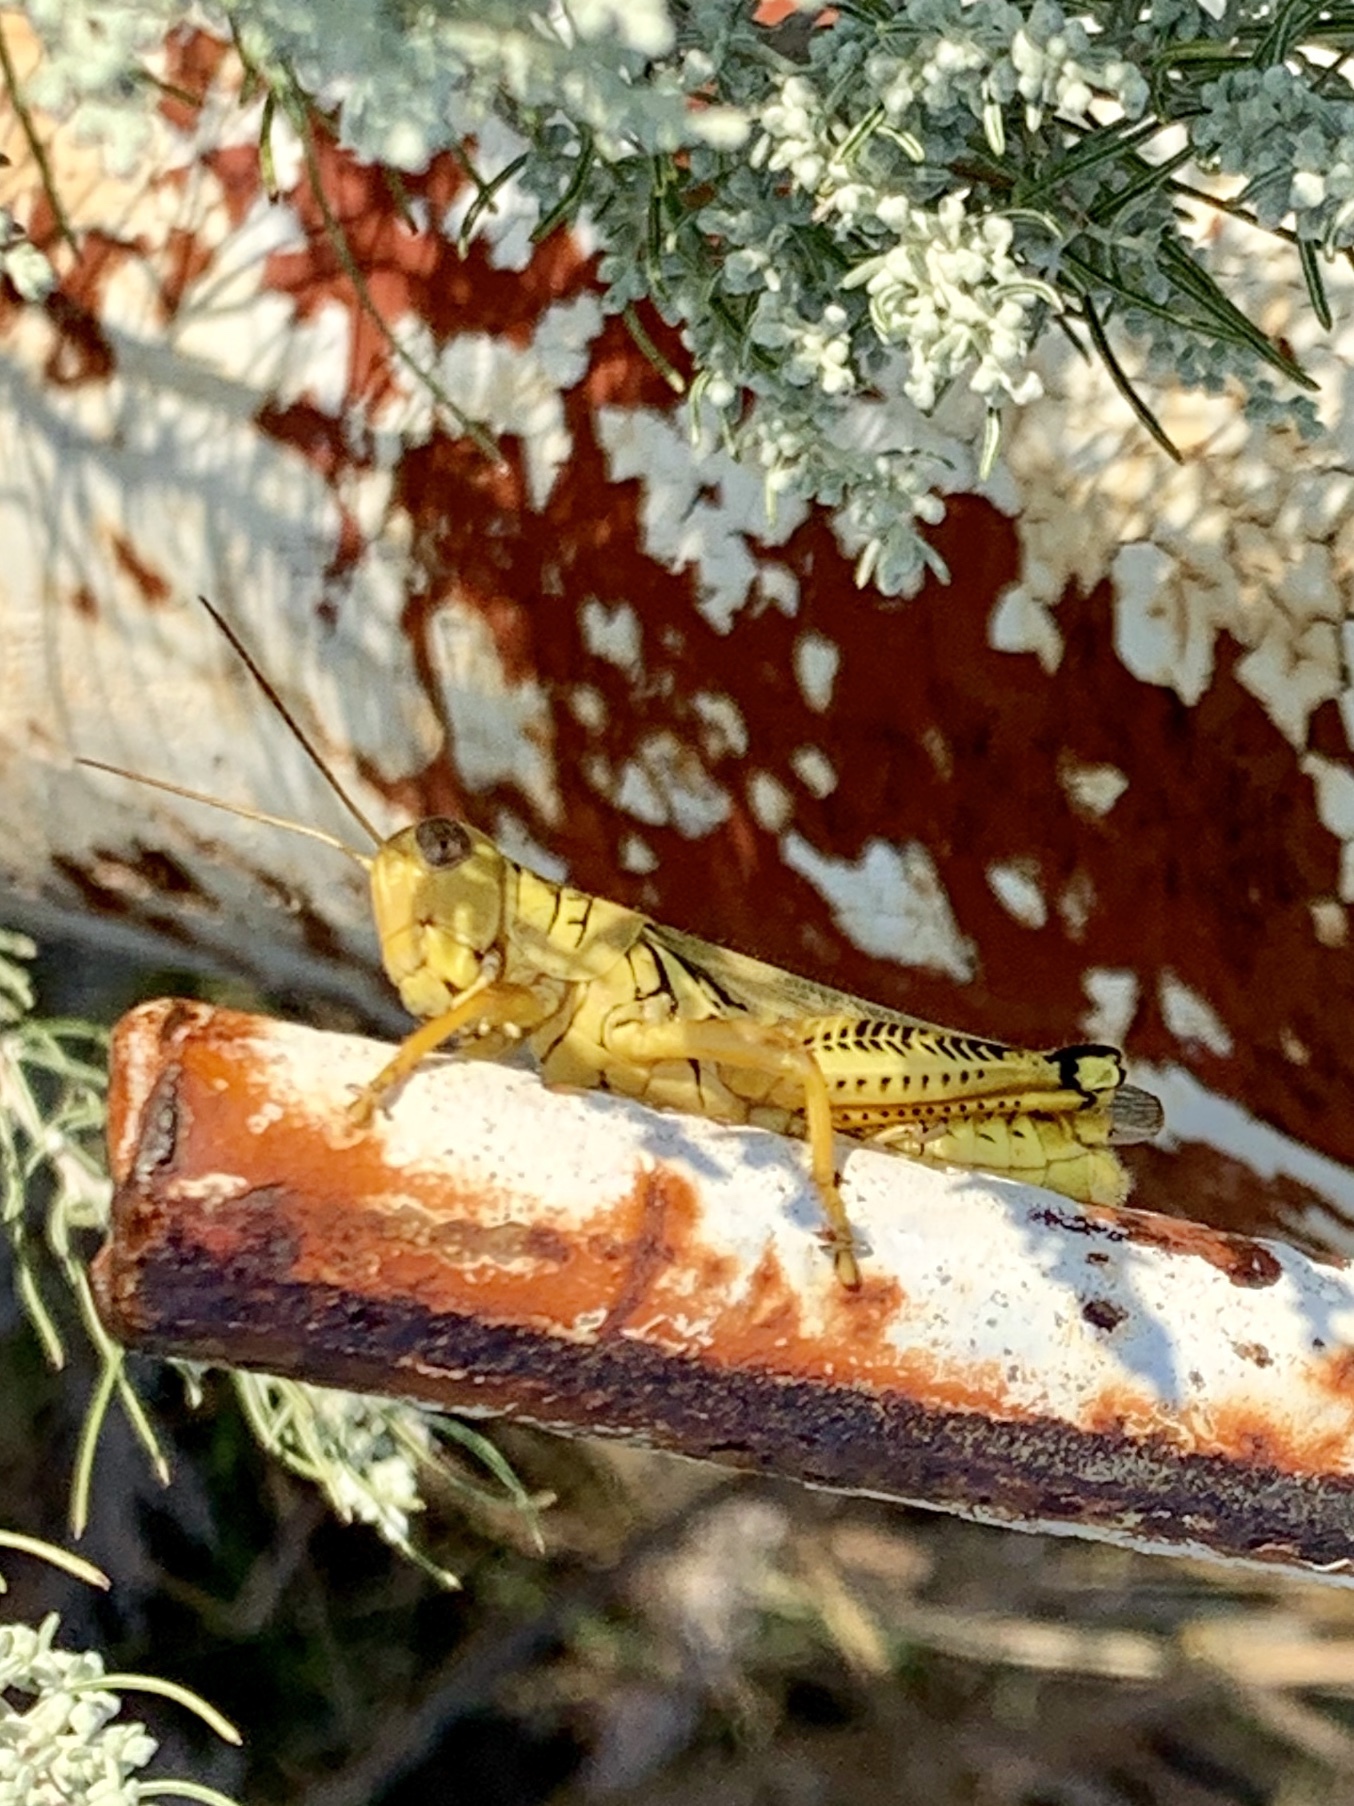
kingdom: Animalia
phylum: Arthropoda
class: Insecta
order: Orthoptera
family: Acrididae
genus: Melanoplus
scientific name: Melanoplus differentialis
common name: Differential grasshopper
